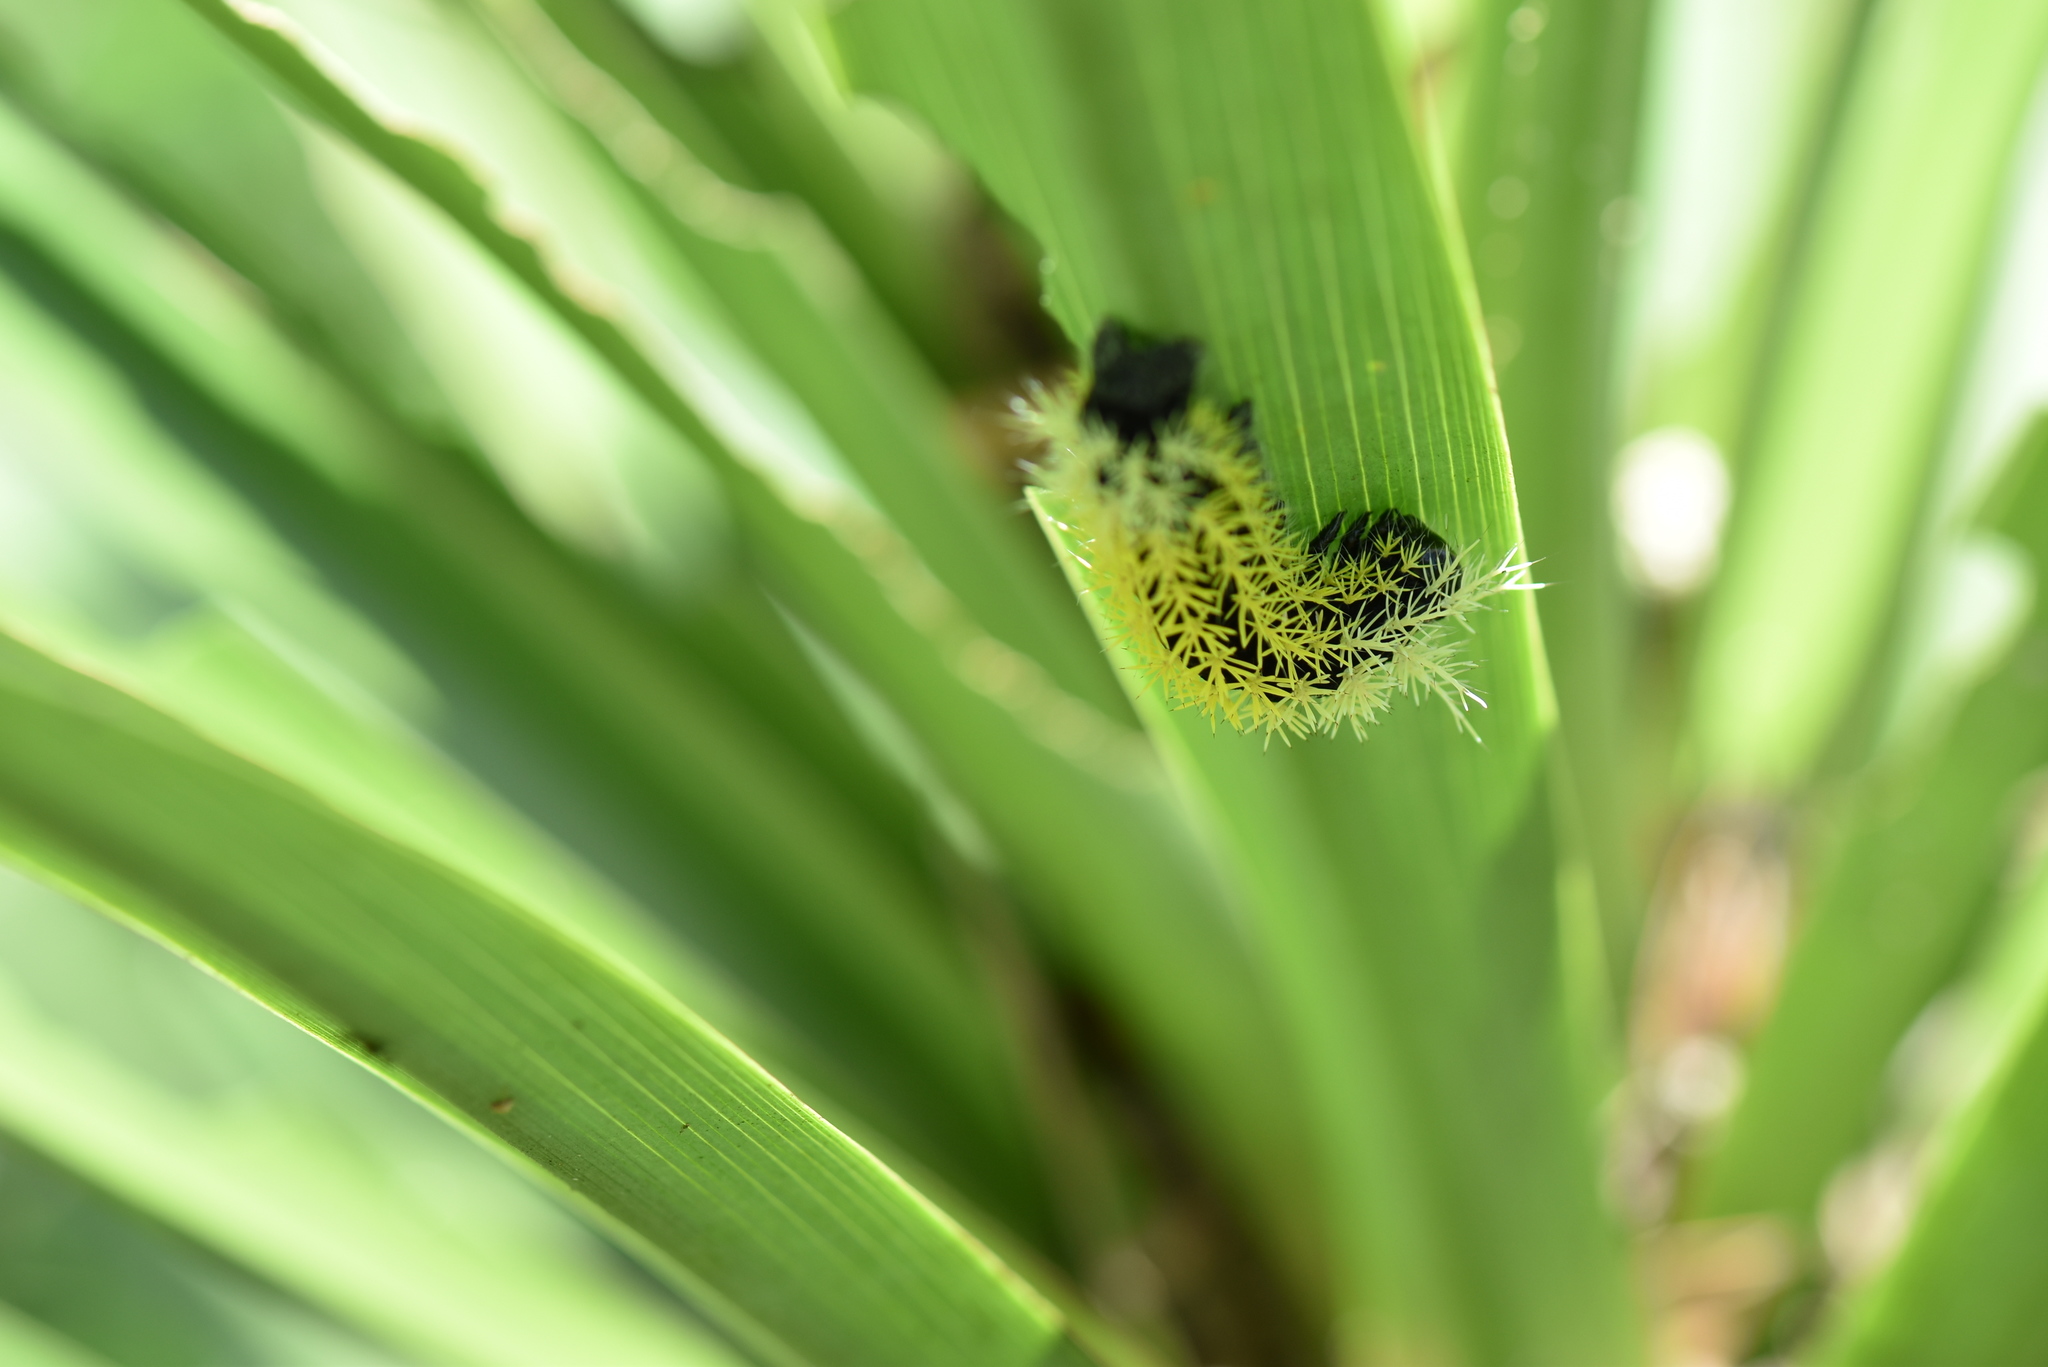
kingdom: Animalia
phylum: Arthropoda
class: Insecta
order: Lepidoptera
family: Saturniidae
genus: Leucanella
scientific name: Leucanella memusae
